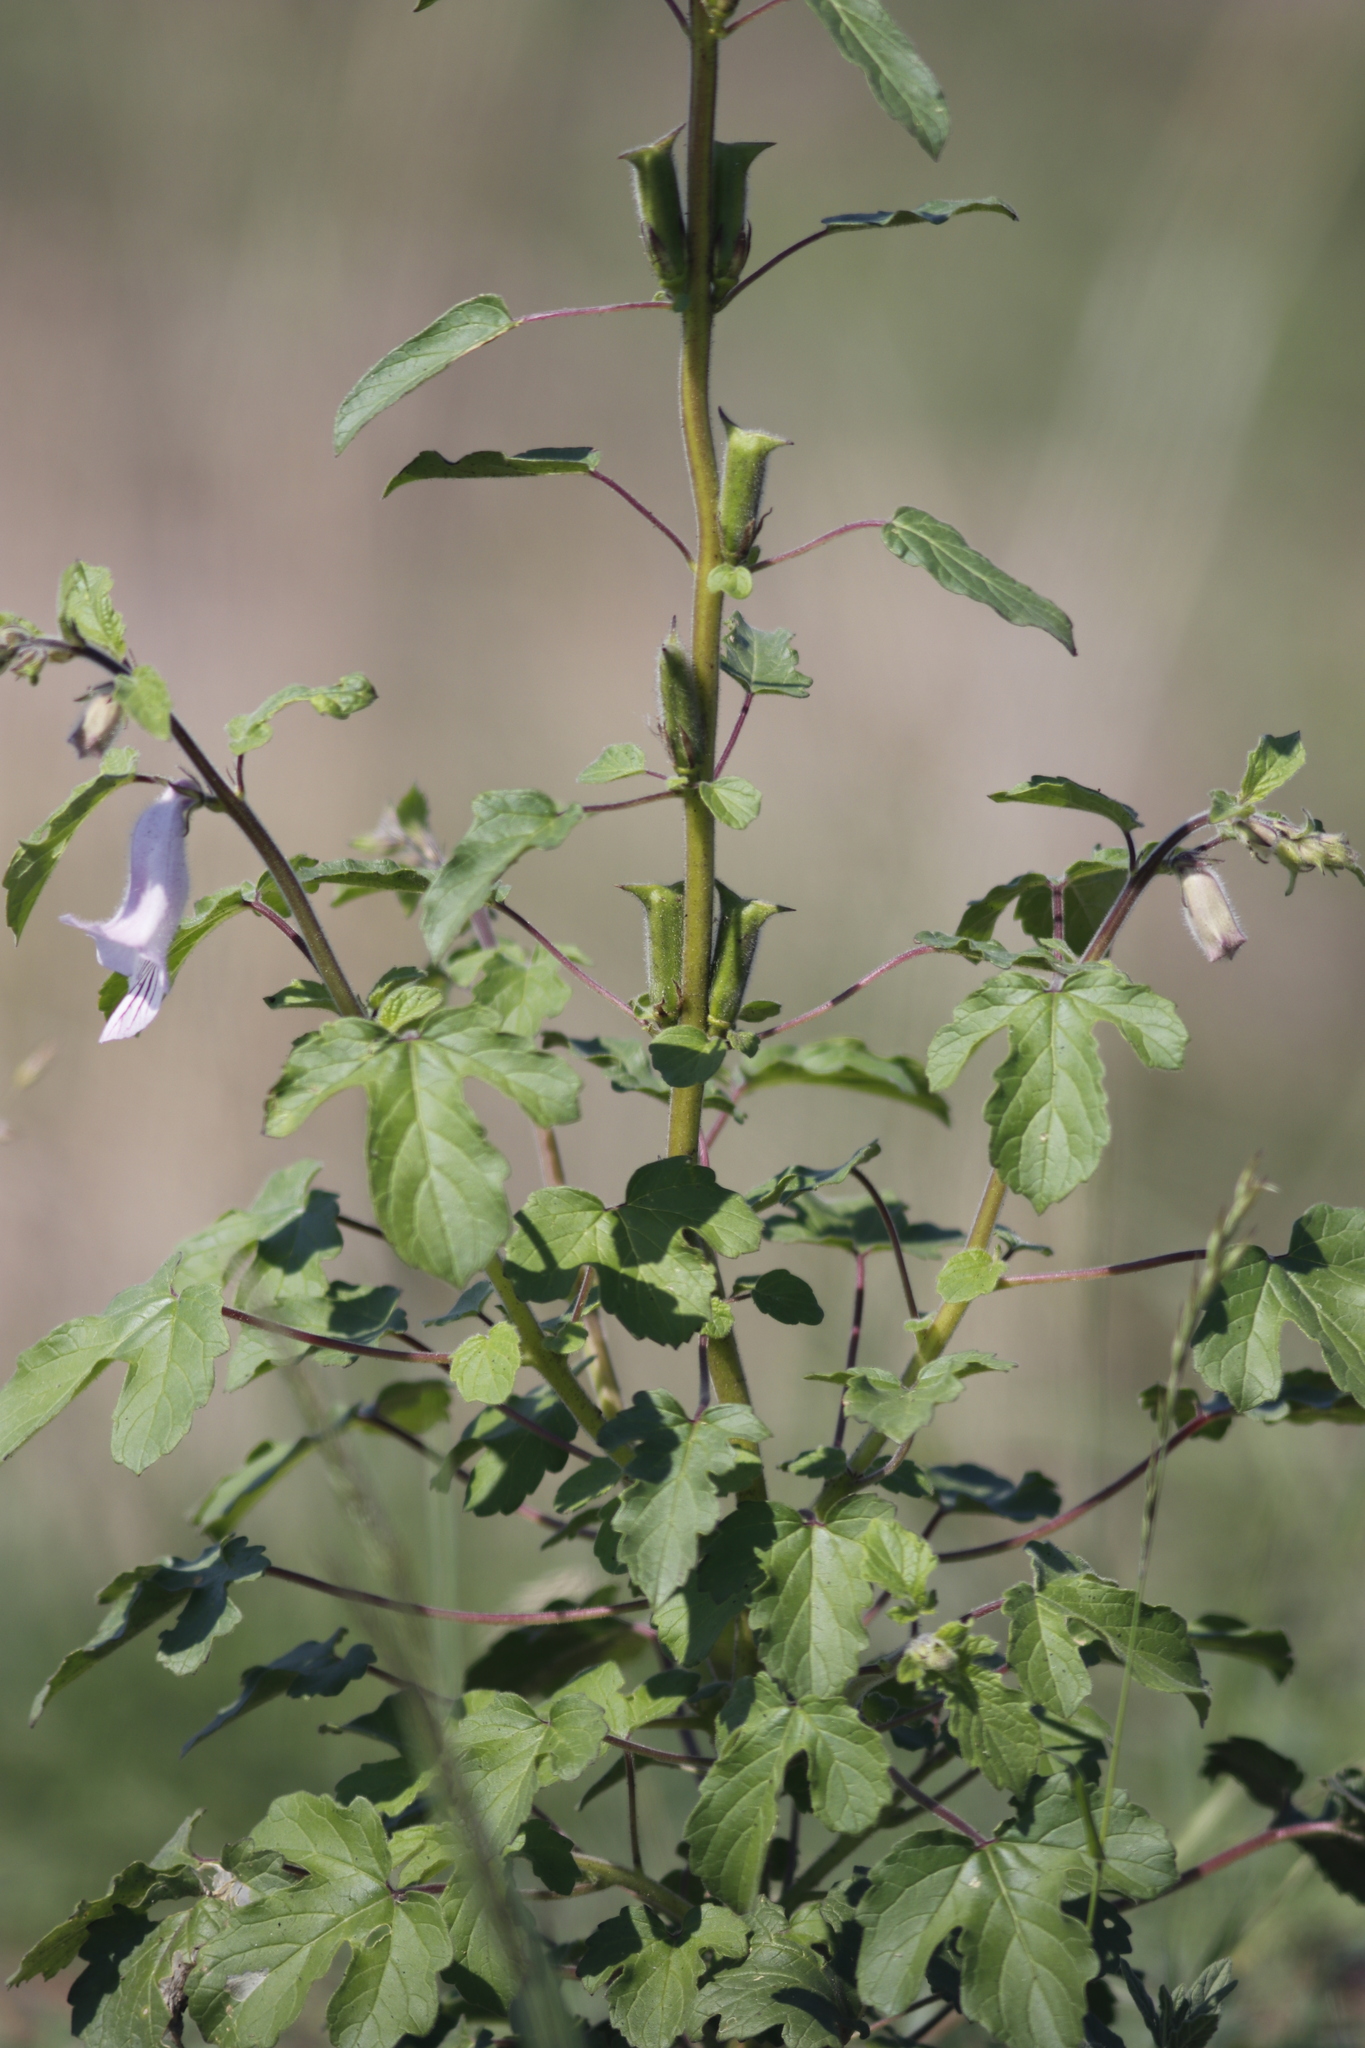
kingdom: Plantae
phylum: Tracheophyta
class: Magnoliopsida
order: Lamiales
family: Pedaliaceae
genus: Sesamum
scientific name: Sesamum trilobum
